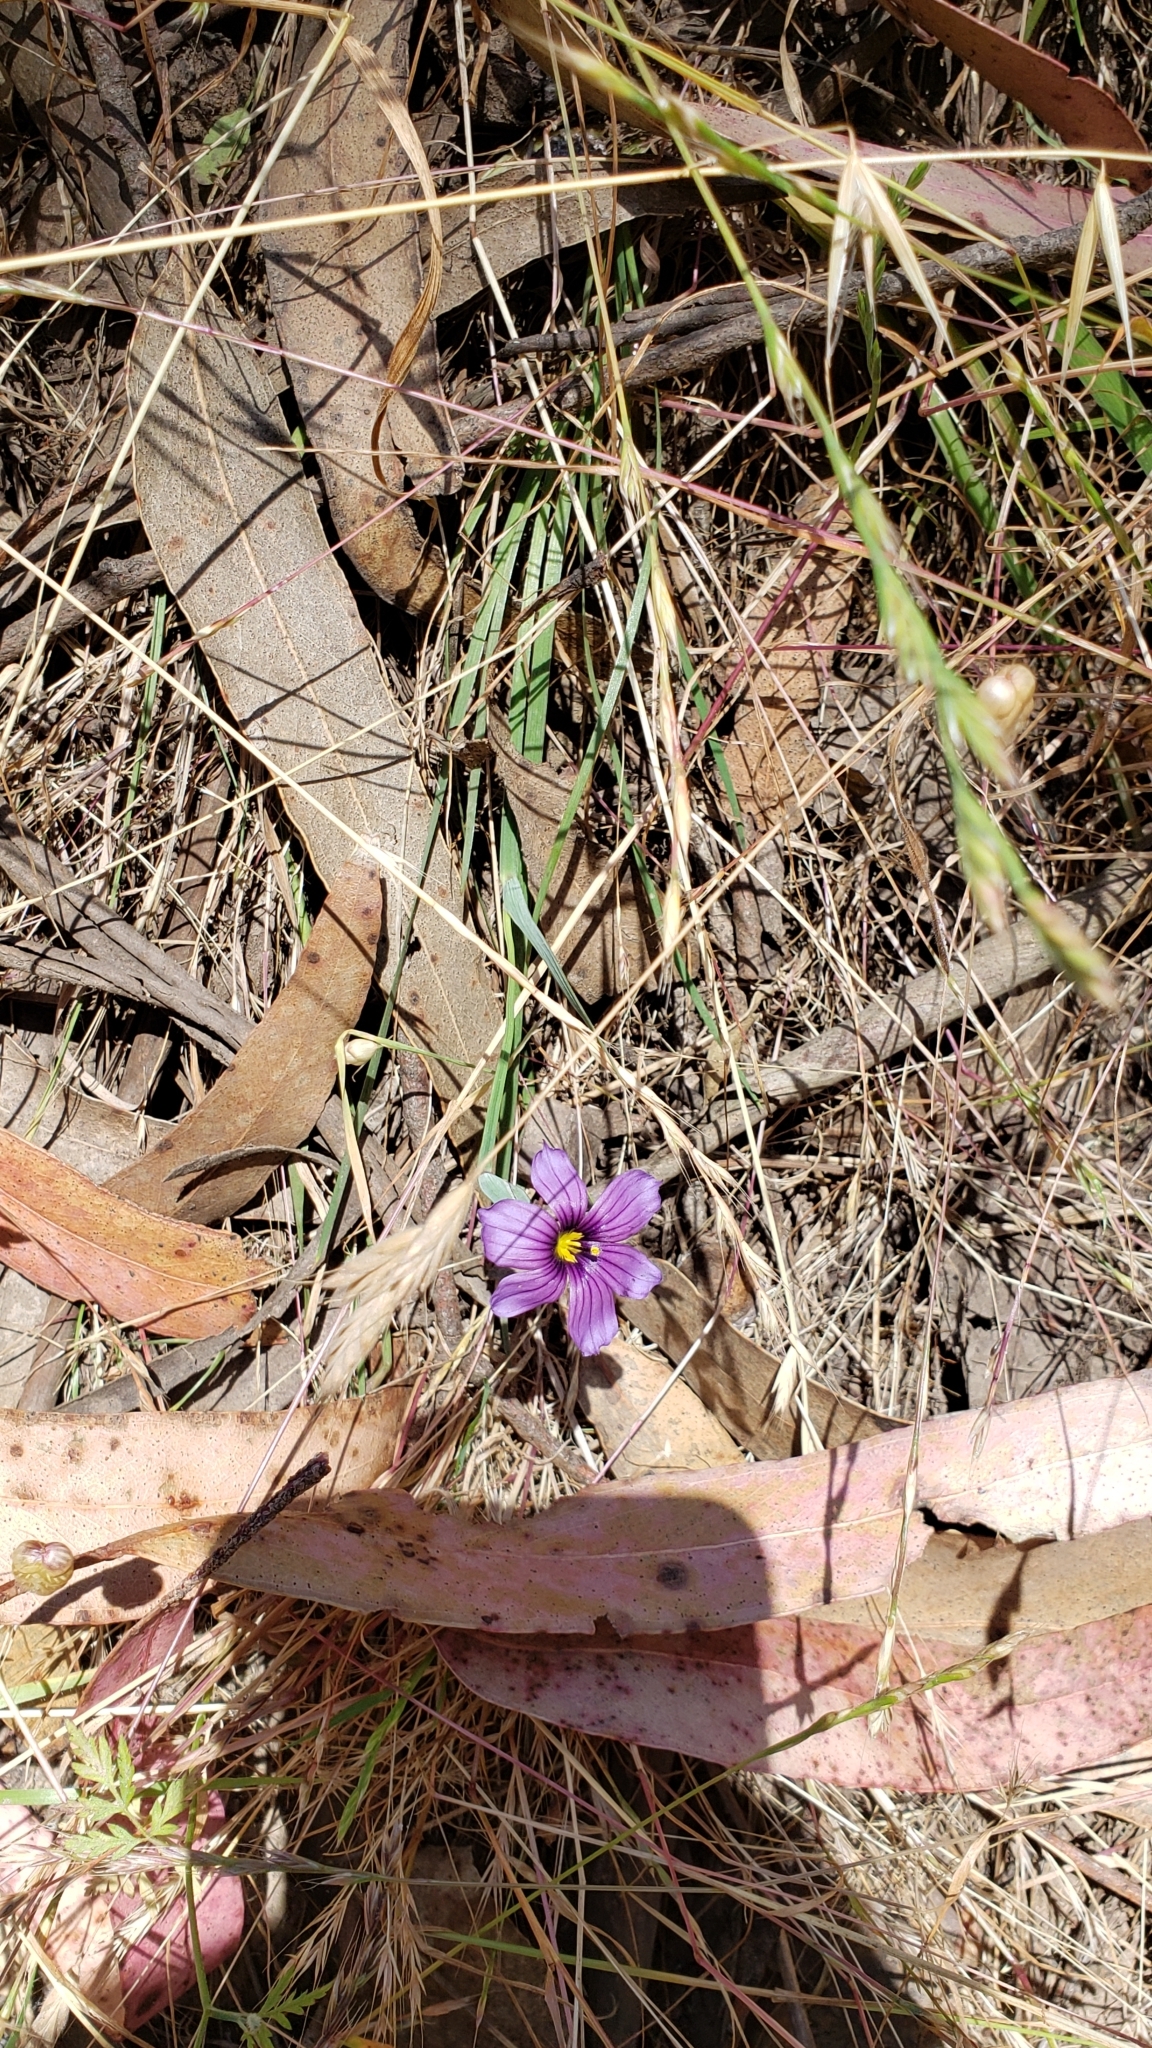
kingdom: Plantae
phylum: Tracheophyta
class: Liliopsida
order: Asparagales
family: Iridaceae
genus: Sisyrinchium
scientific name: Sisyrinchium bellum
